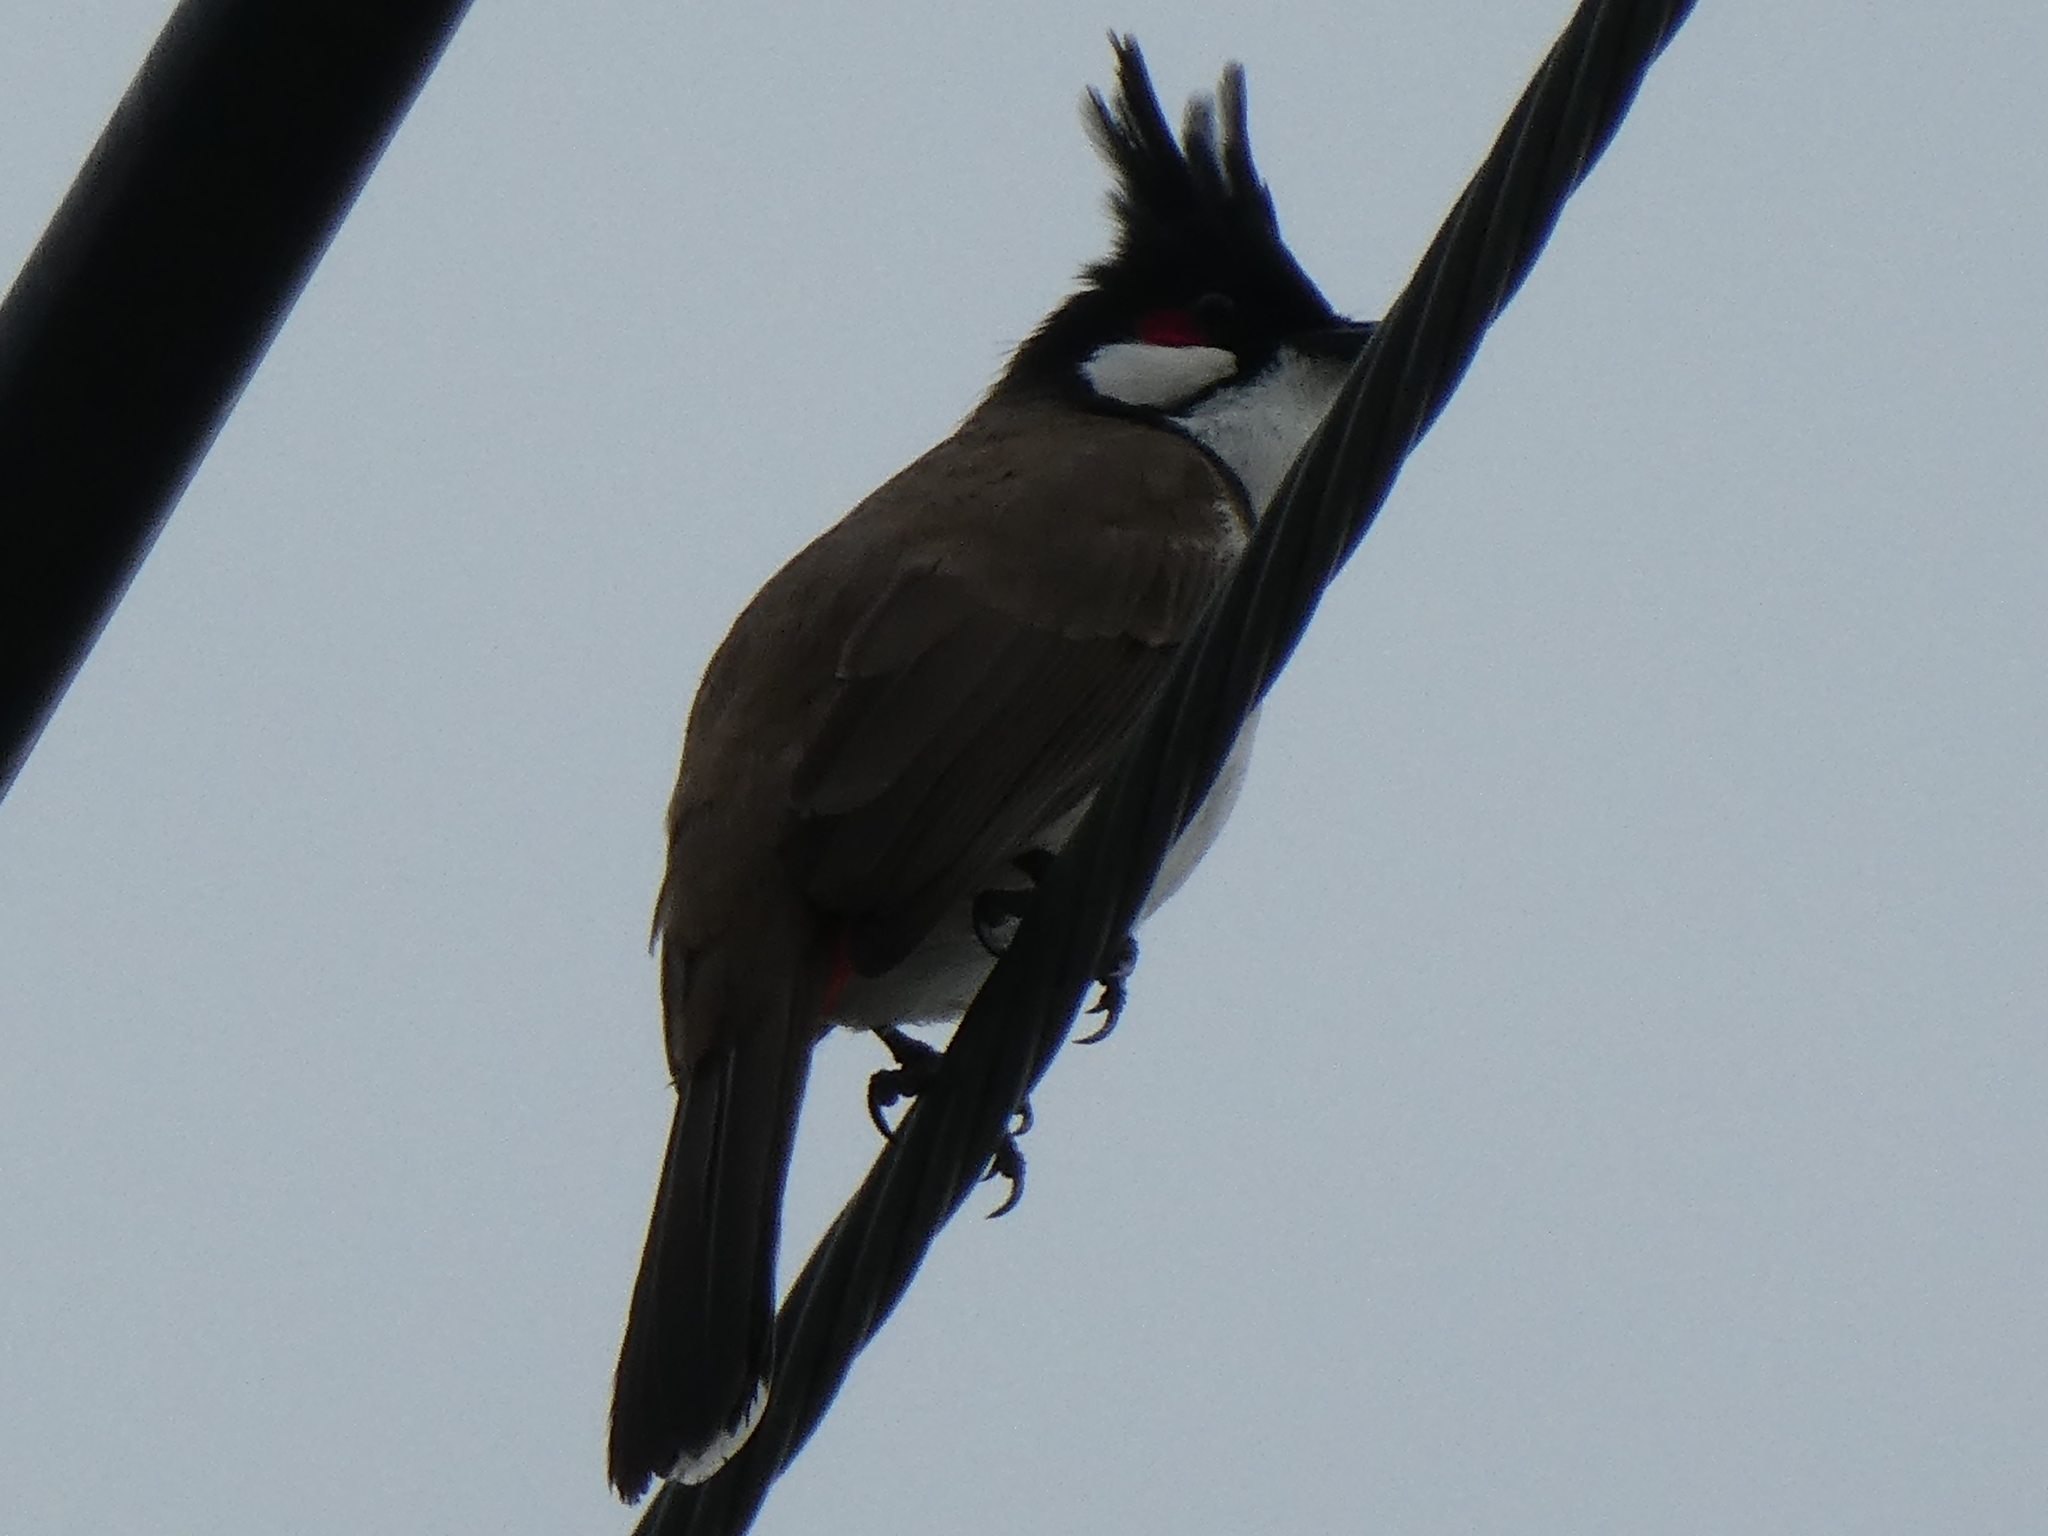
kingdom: Animalia
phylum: Chordata
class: Aves
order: Passeriformes
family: Pycnonotidae
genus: Pycnonotus
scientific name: Pycnonotus jocosus
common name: Red-whiskered bulbul
